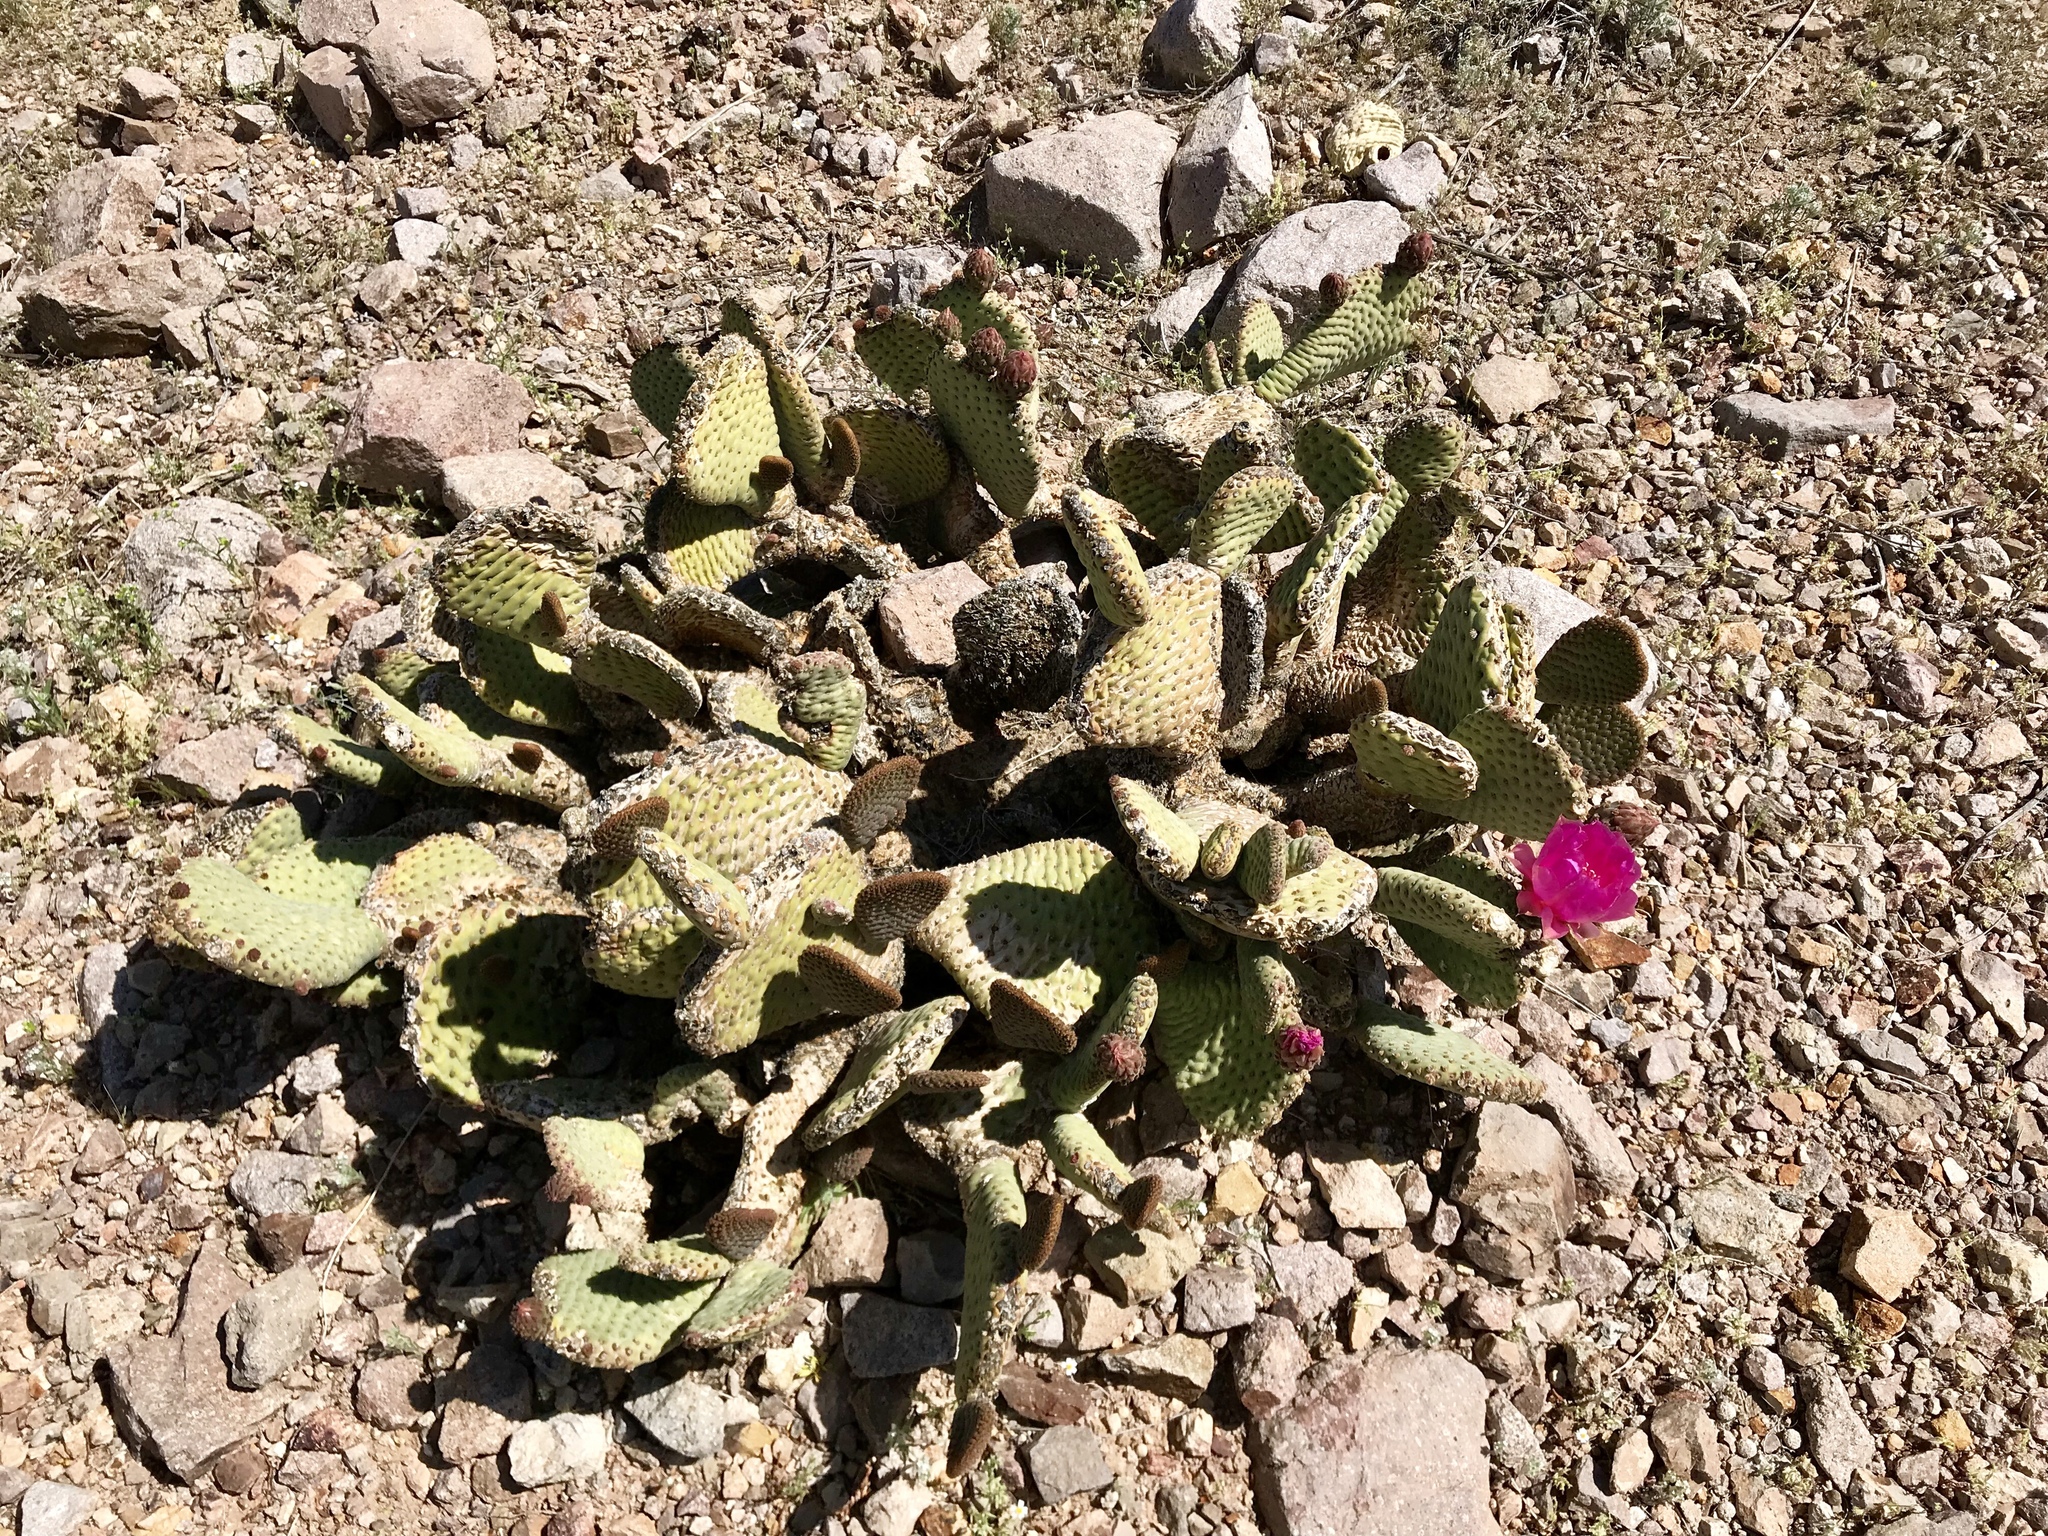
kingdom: Plantae
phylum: Tracheophyta
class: Magnoliopsida
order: Caryophyllales
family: Cactaceae
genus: Opuntia
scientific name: Opuntia basilaris
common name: Beavertail prickly-pear
